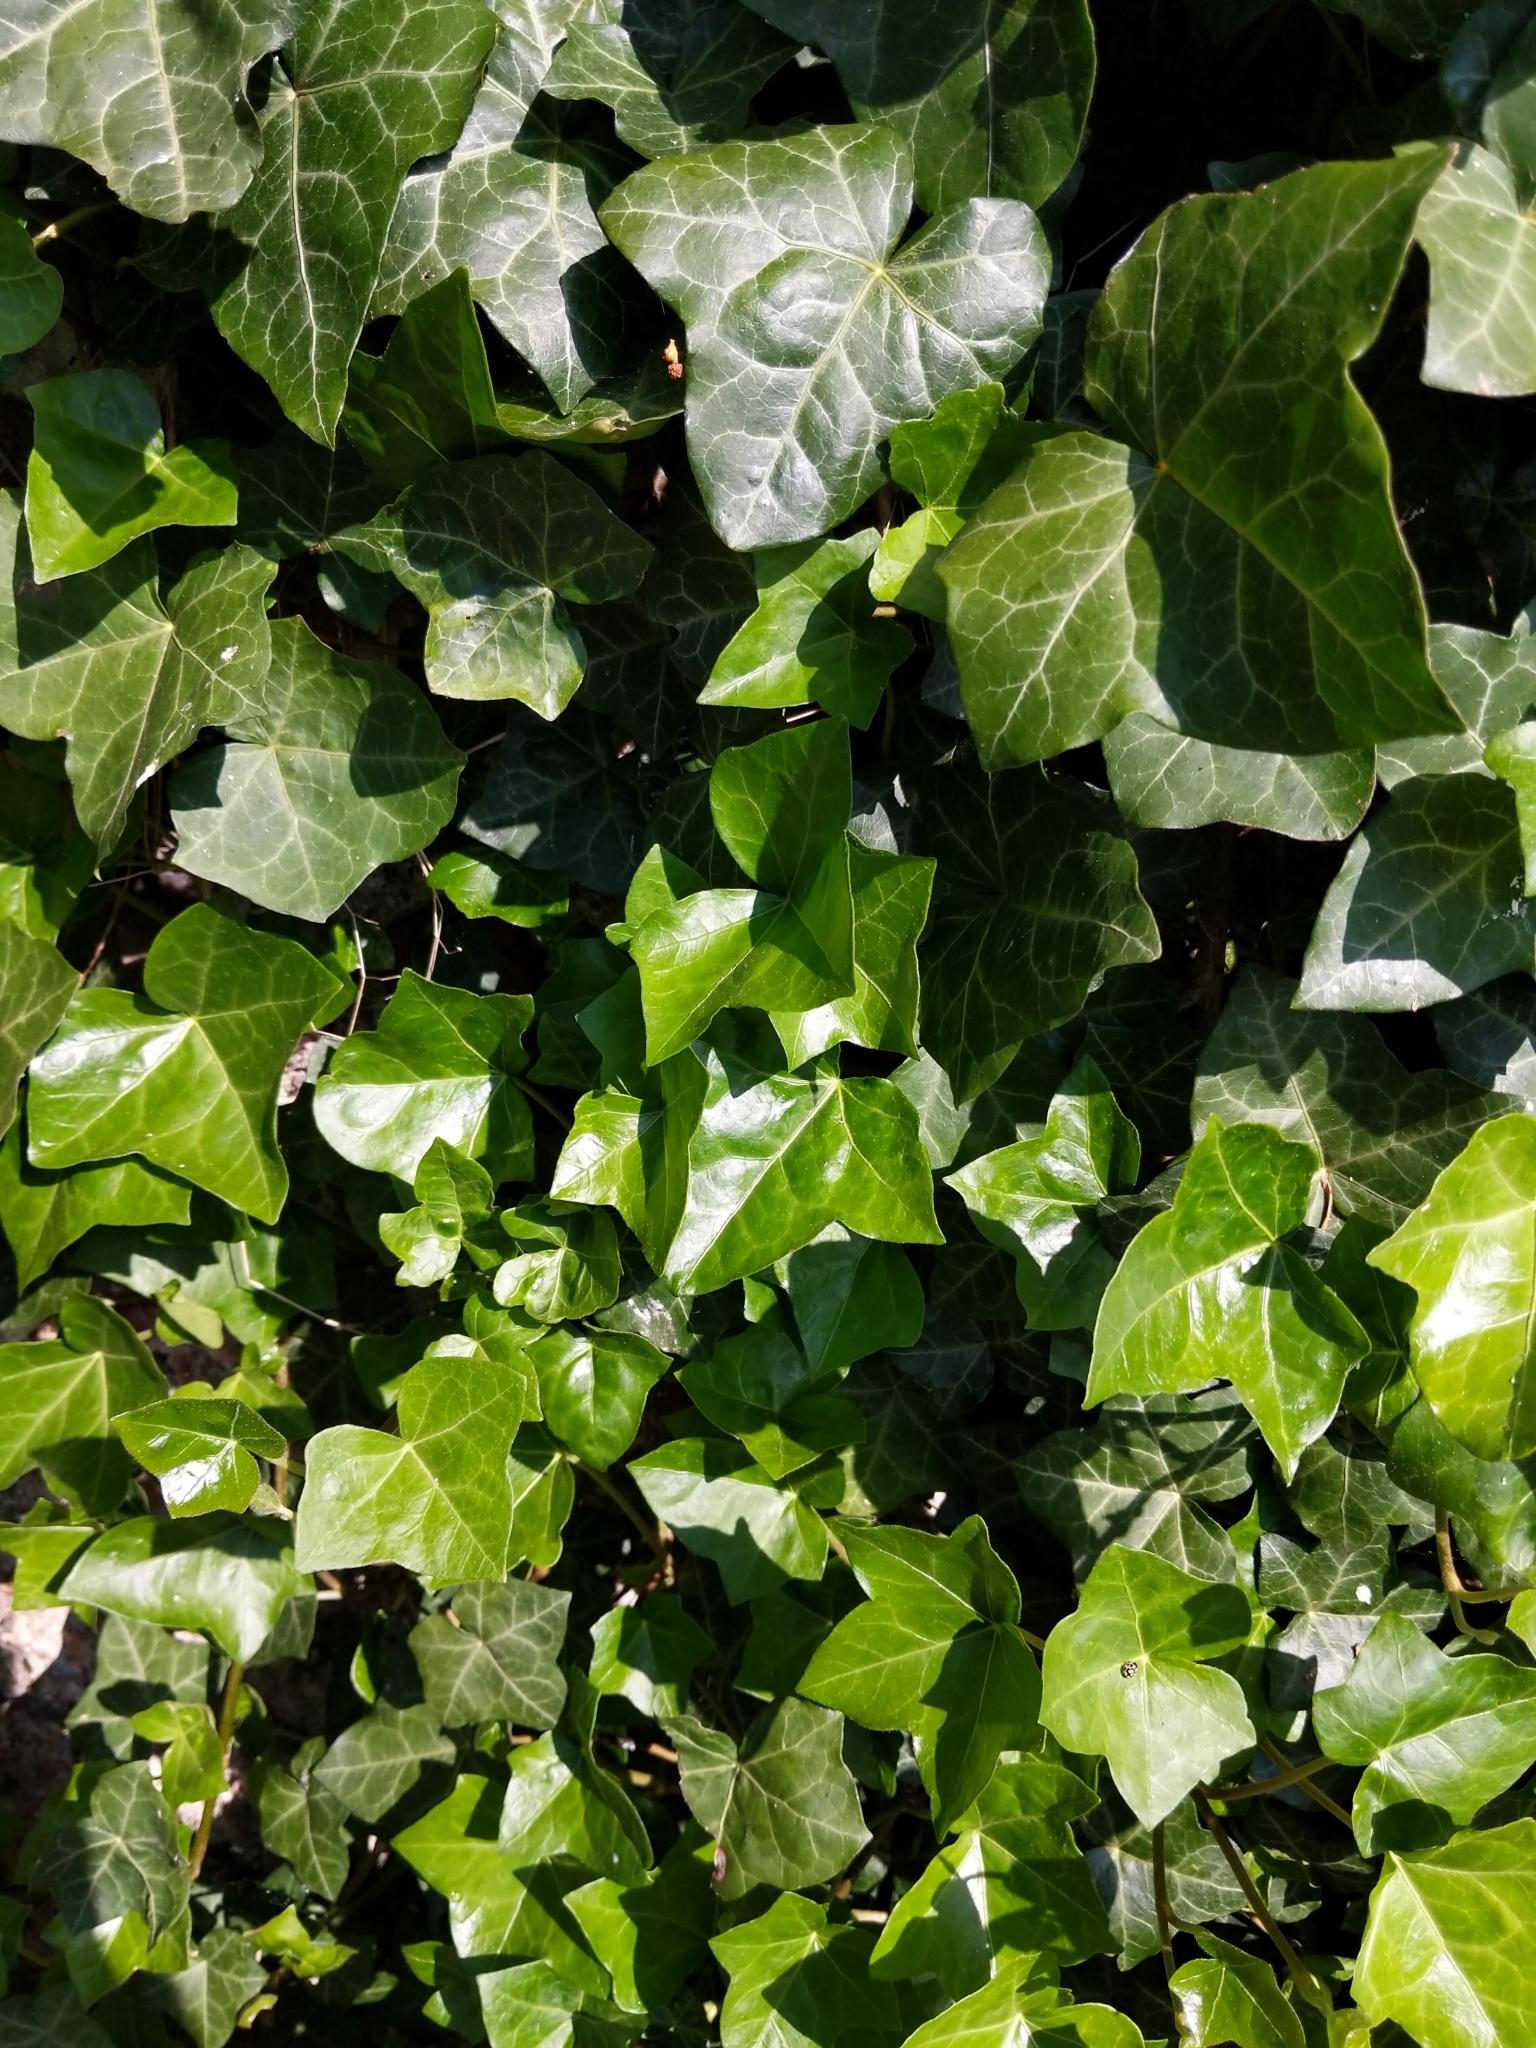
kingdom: Plantae
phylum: Tracheophyta
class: Magnoliopsida
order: Apiales
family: Araliaceae
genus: Hedera
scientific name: Hedera helix
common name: Ivy
